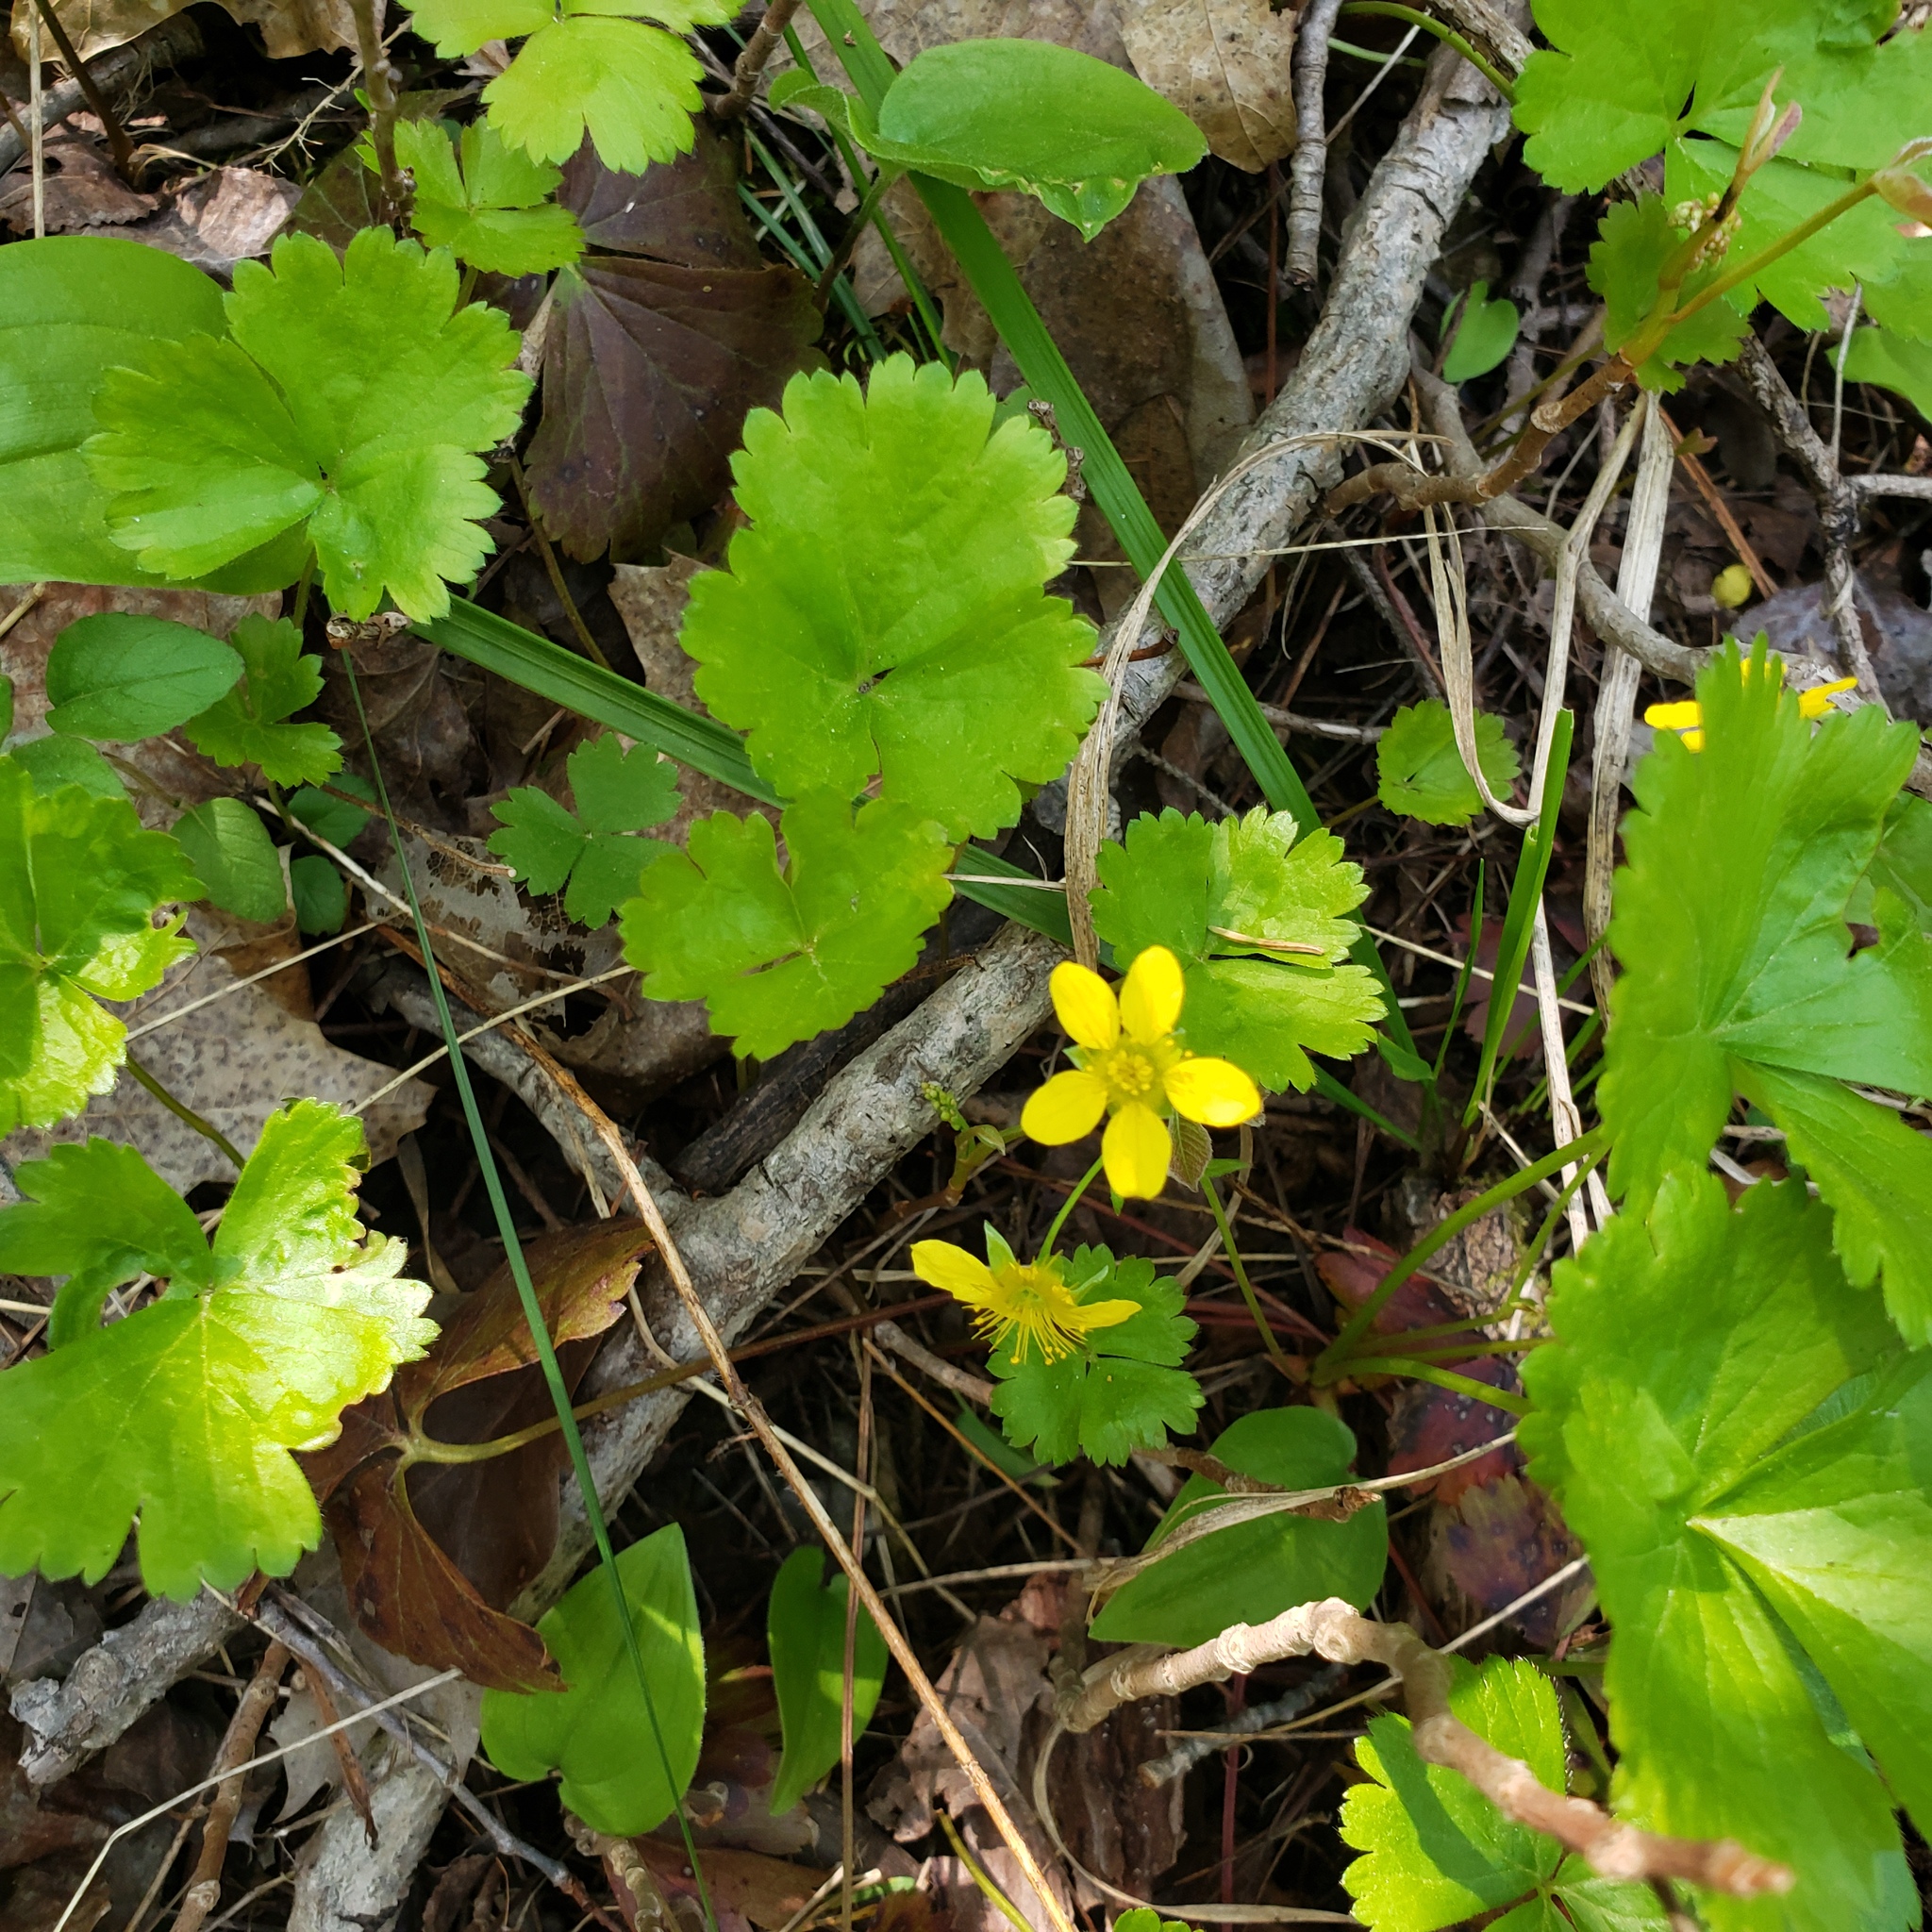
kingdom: Plantae
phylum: Tracheophyta
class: Magnoliopsida
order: Rosales
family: Rosaceae
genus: Geum
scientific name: Geum fragarioides
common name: Appalachian barren strawberry
